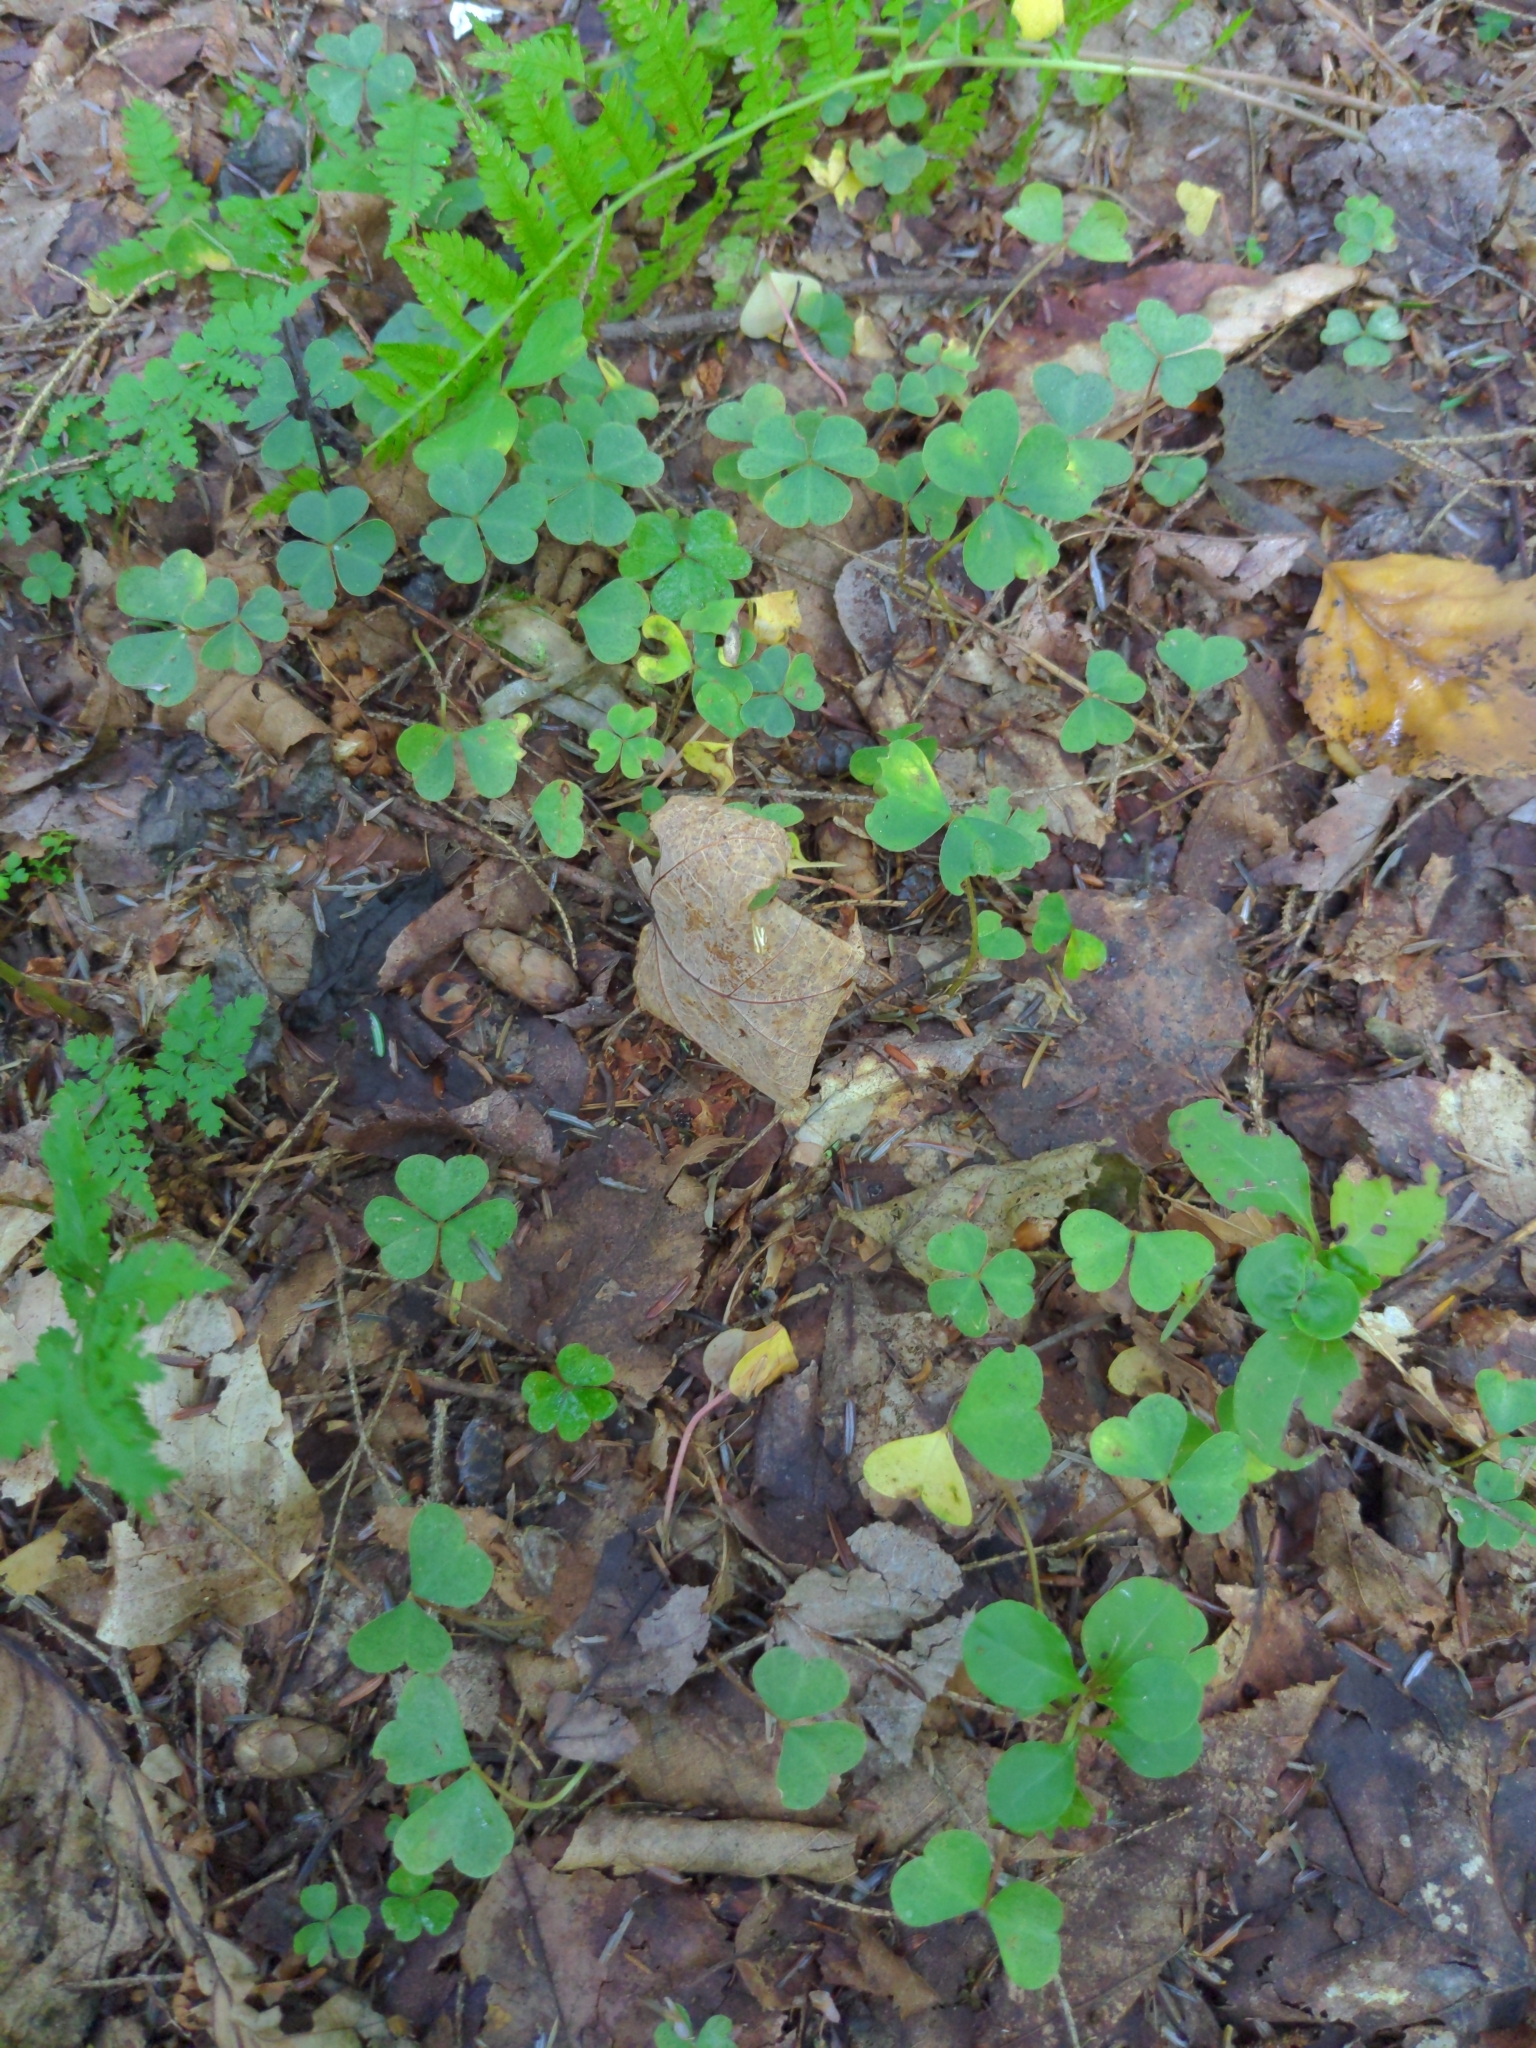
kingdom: Plantae
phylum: Tracheophyta
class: Magnoliopsida
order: Oxalidales
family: Oxalidaceae
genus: Oxalis
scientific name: Oxalis montana
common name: American wood-sorrel
